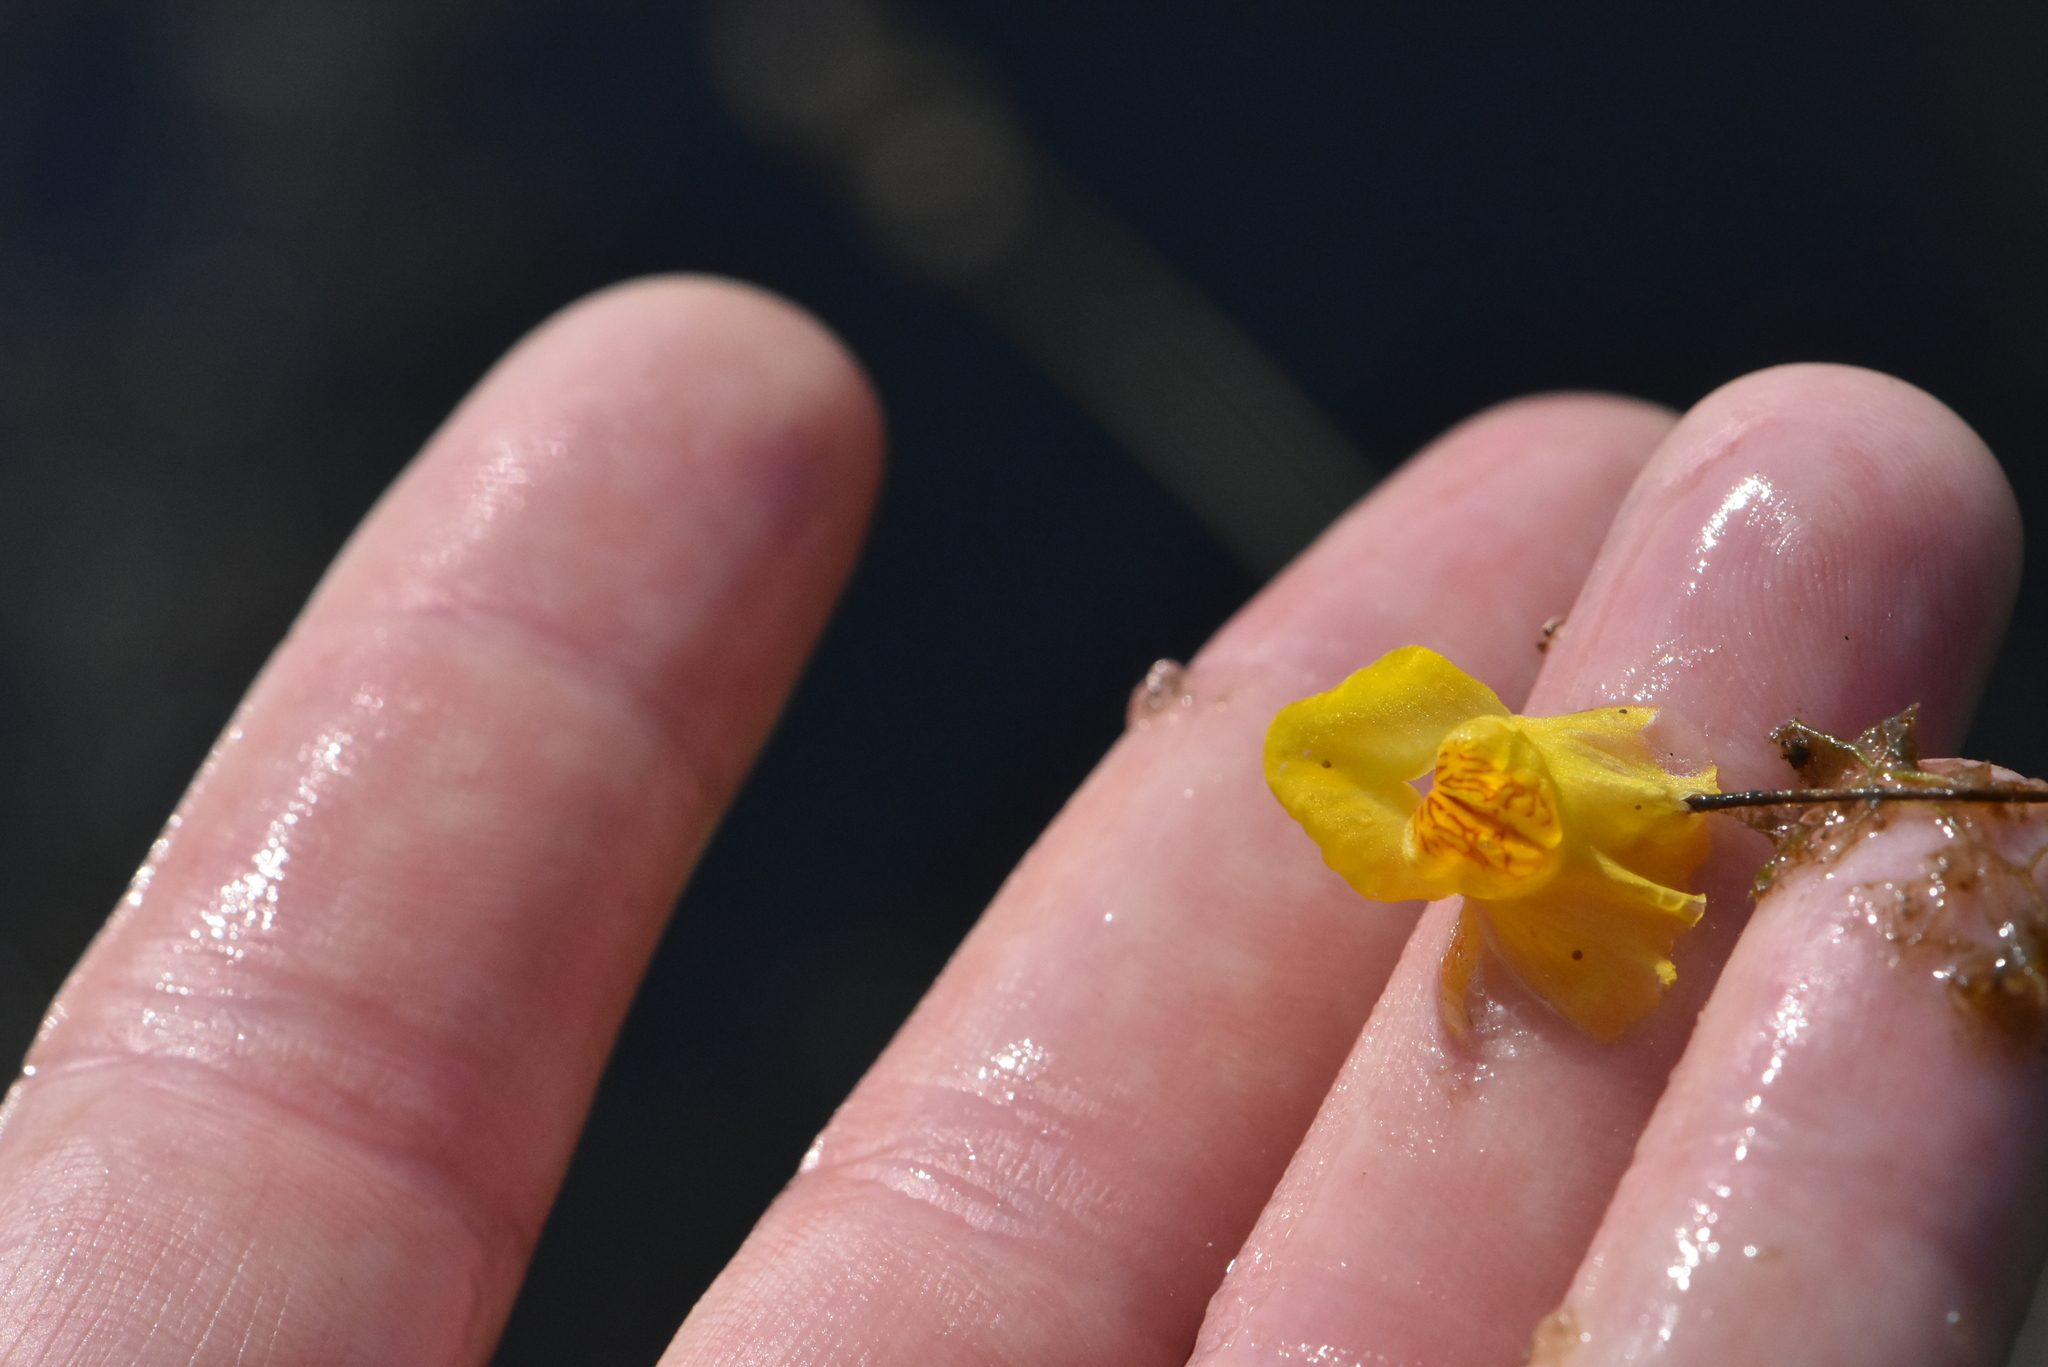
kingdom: Plantae
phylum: Tracheophyta
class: Magnoliopsida
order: Lamiales
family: Lentibulariaceae
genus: Utricularia
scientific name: Utricularia australis
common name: Bladderwort
